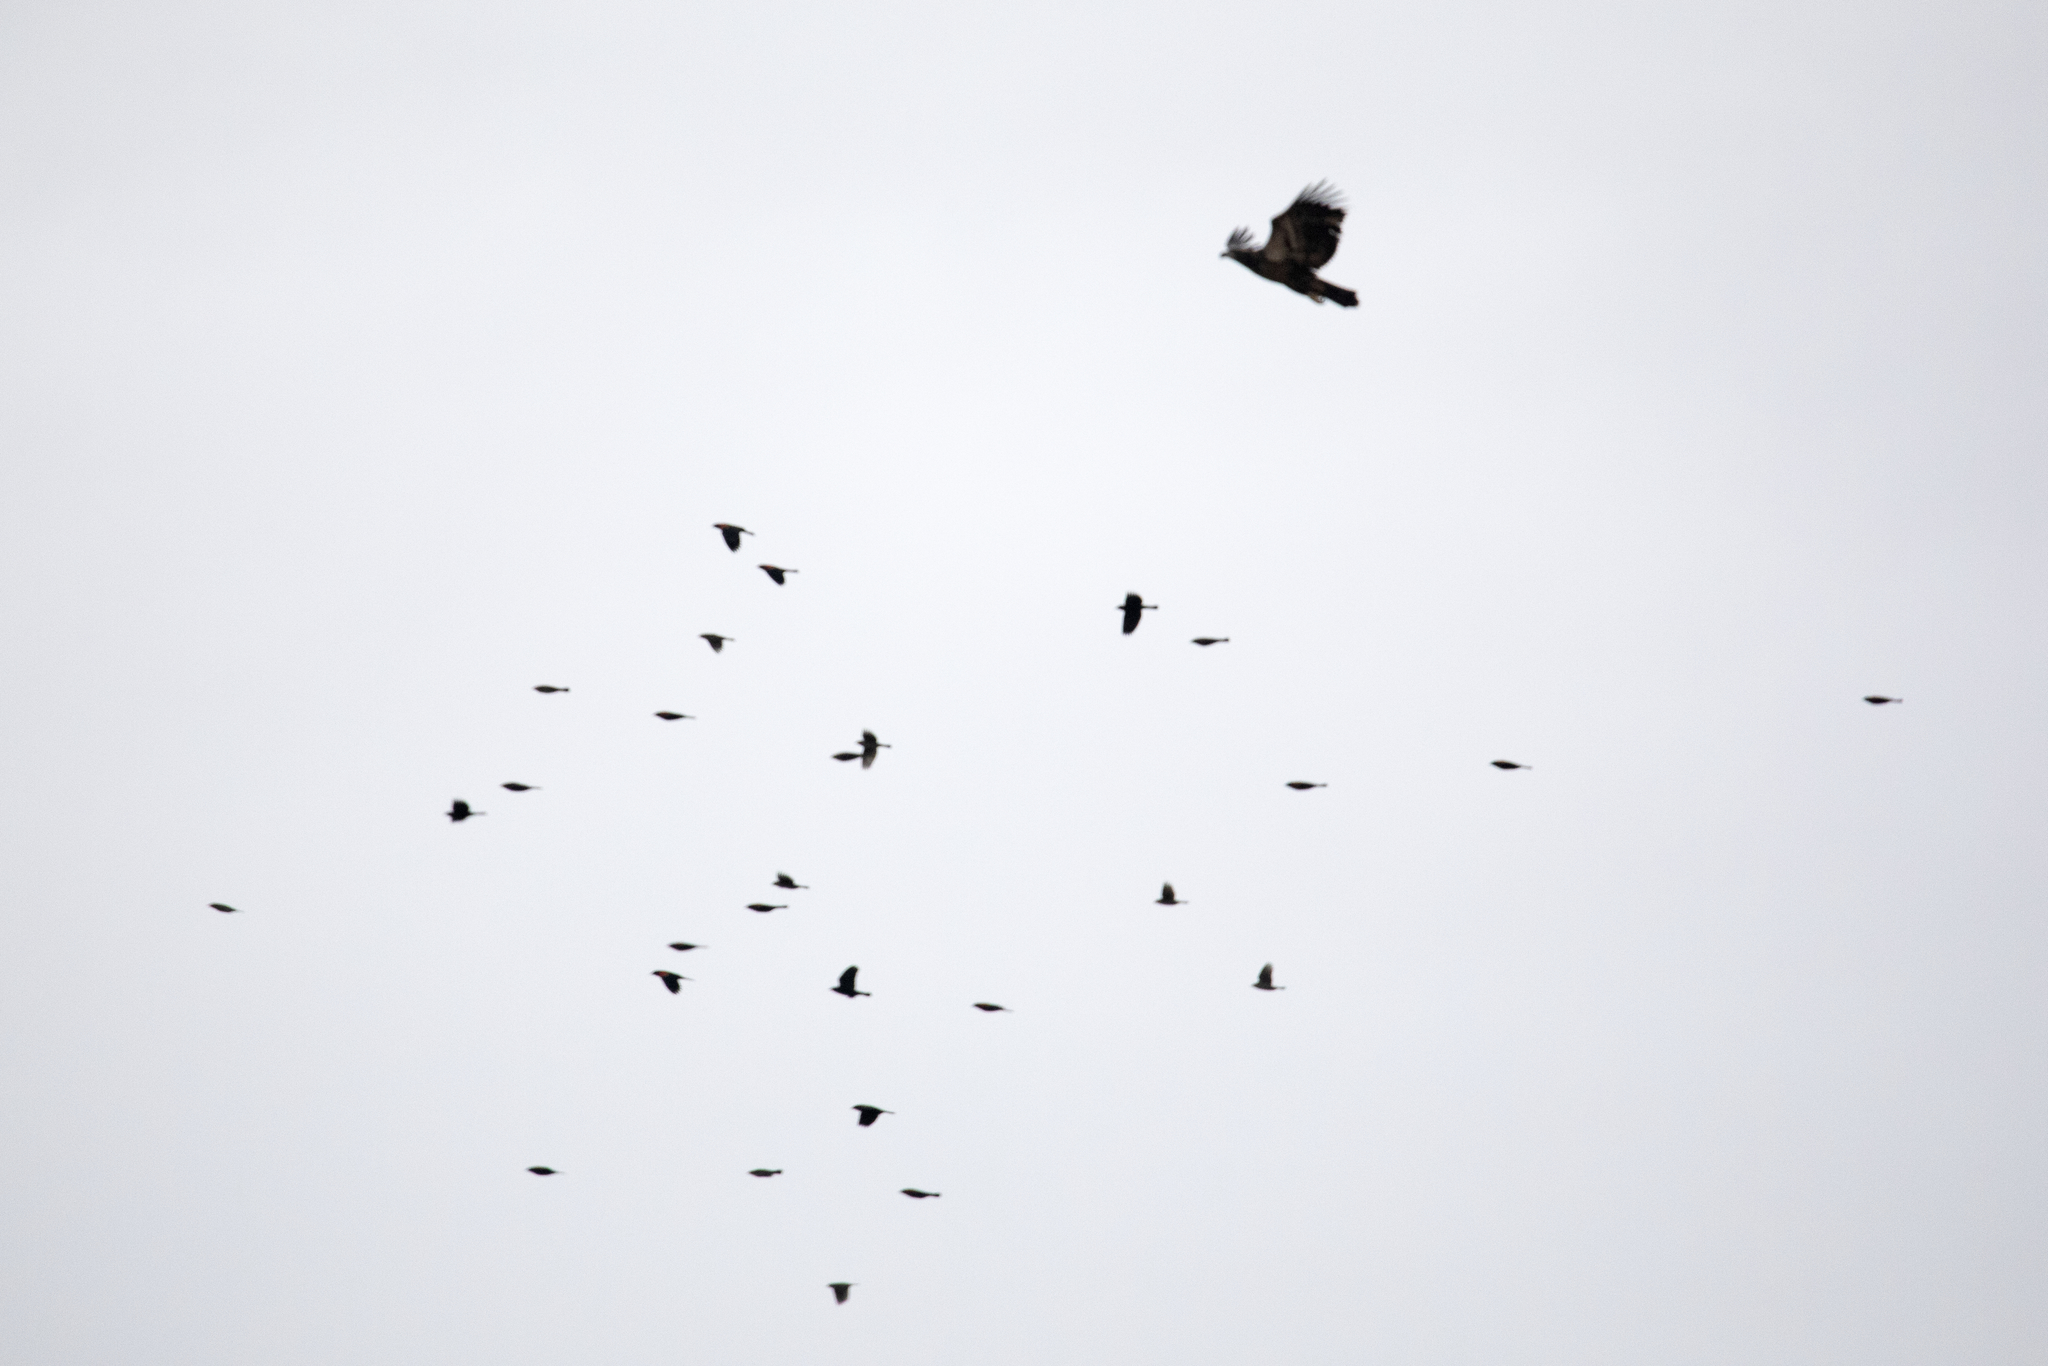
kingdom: Animalia
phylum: Chordata
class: Aves
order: Accipitriformes
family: Accipitridae
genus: Haliaeetus
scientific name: Haliaeetus leucocephalus
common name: Bald eagle
